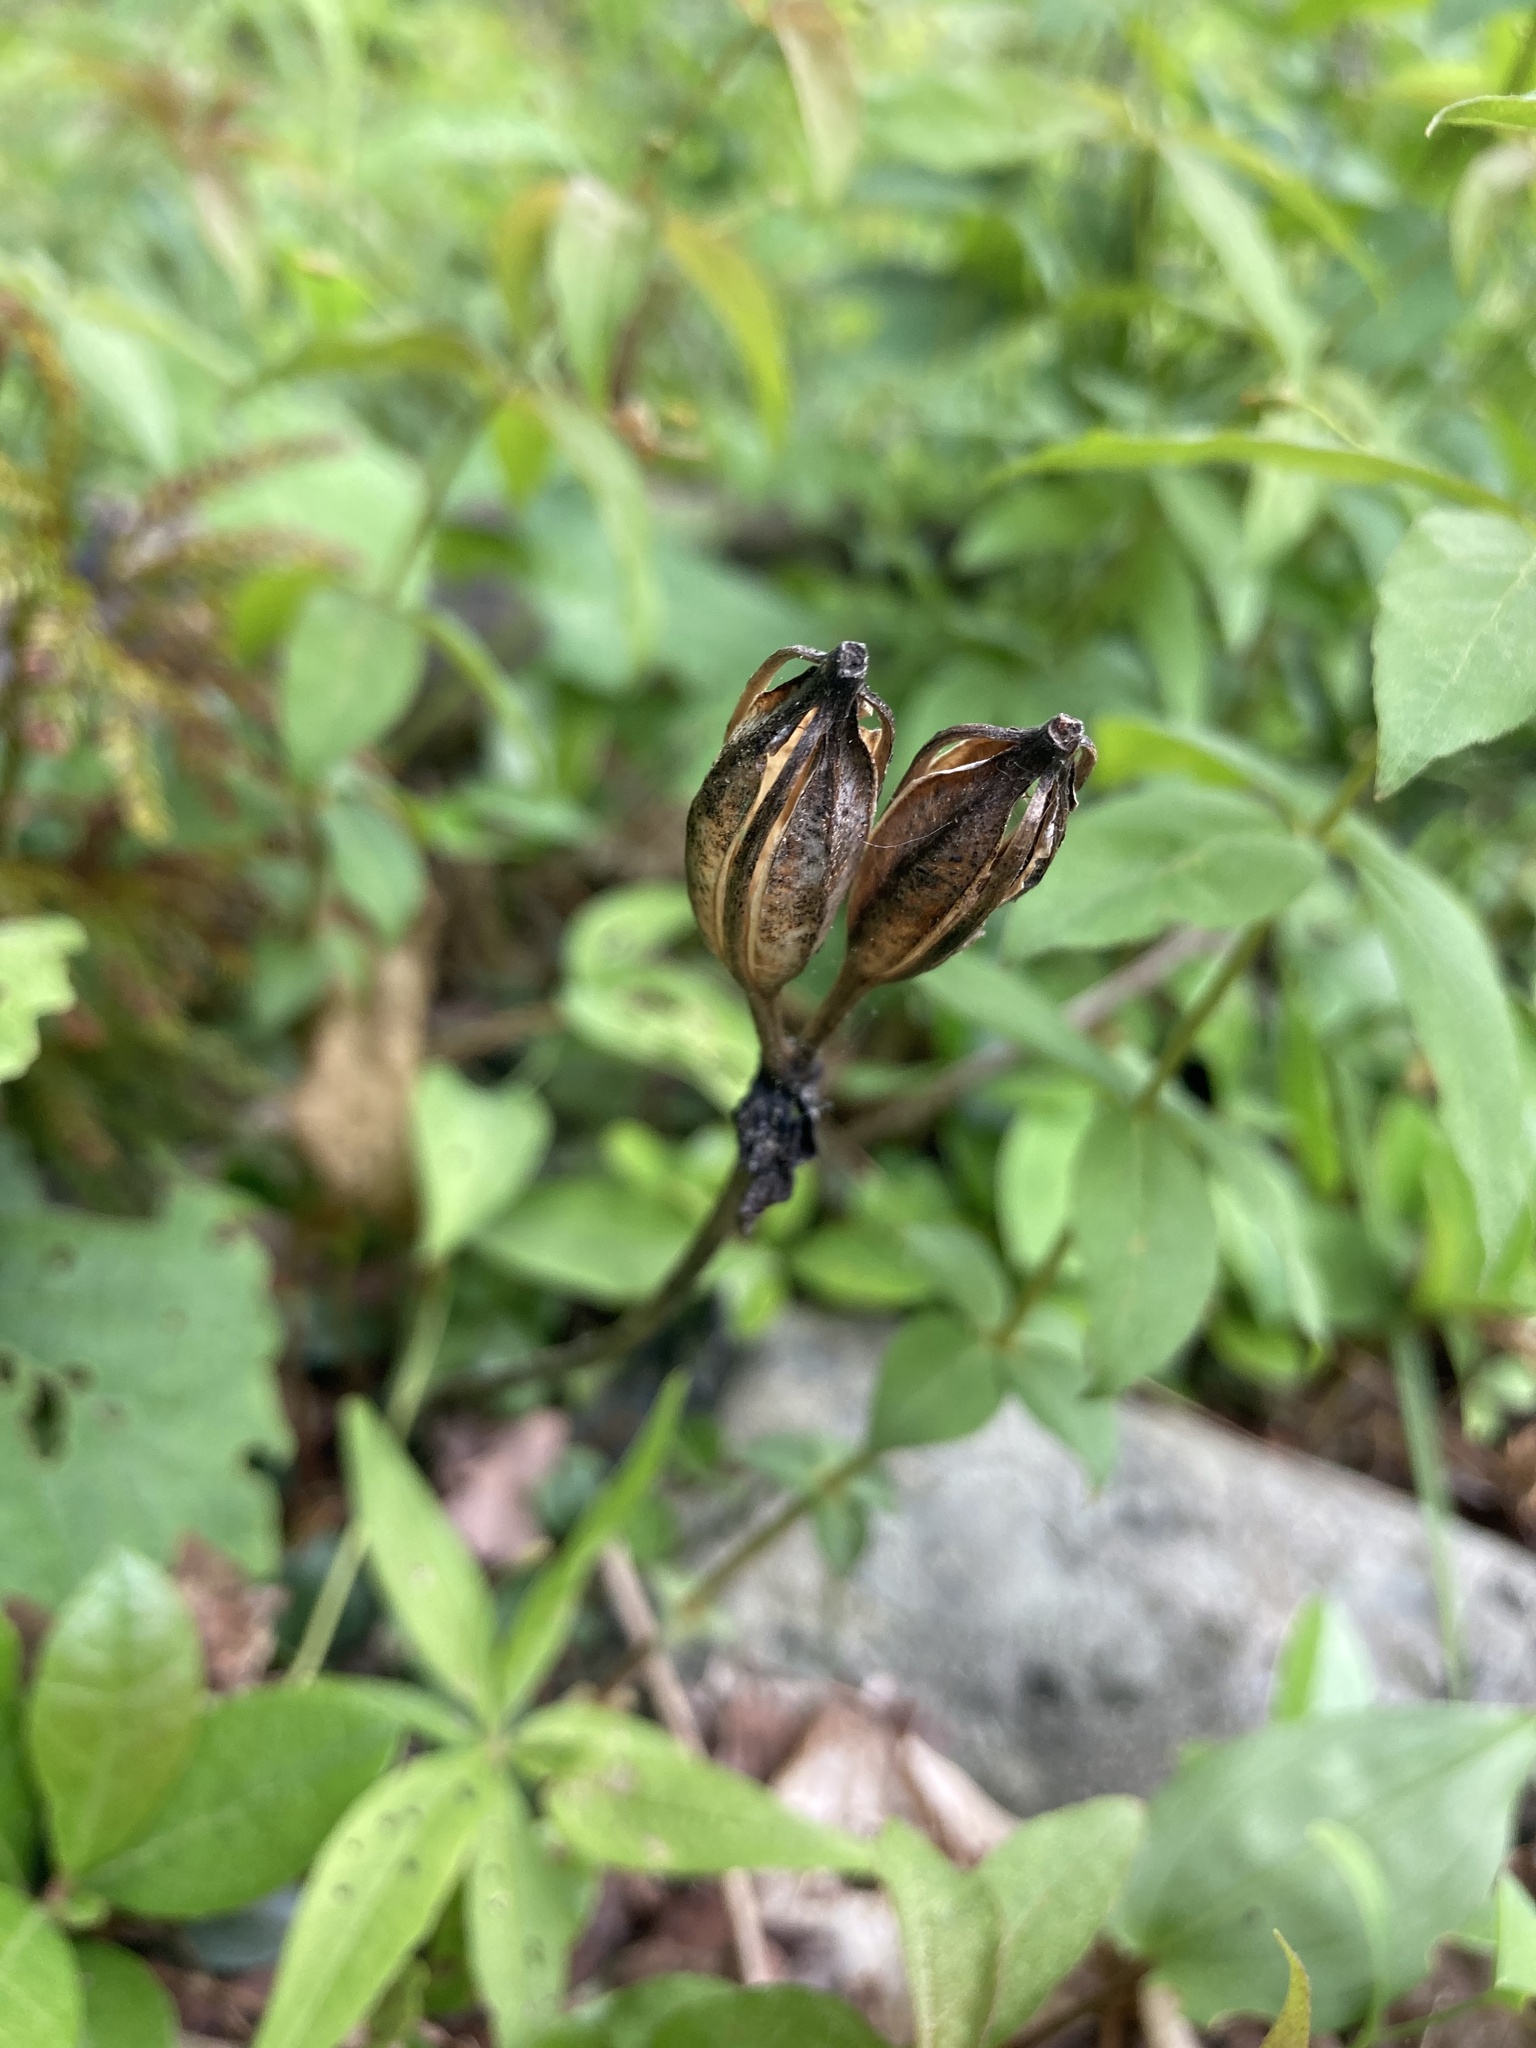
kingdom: Plantae
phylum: Tracheophyta
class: Liliopsida
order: Asparagales
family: Orchidaceae
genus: Isotria
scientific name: Isotria medeoloides
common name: Small whorled pogonia
